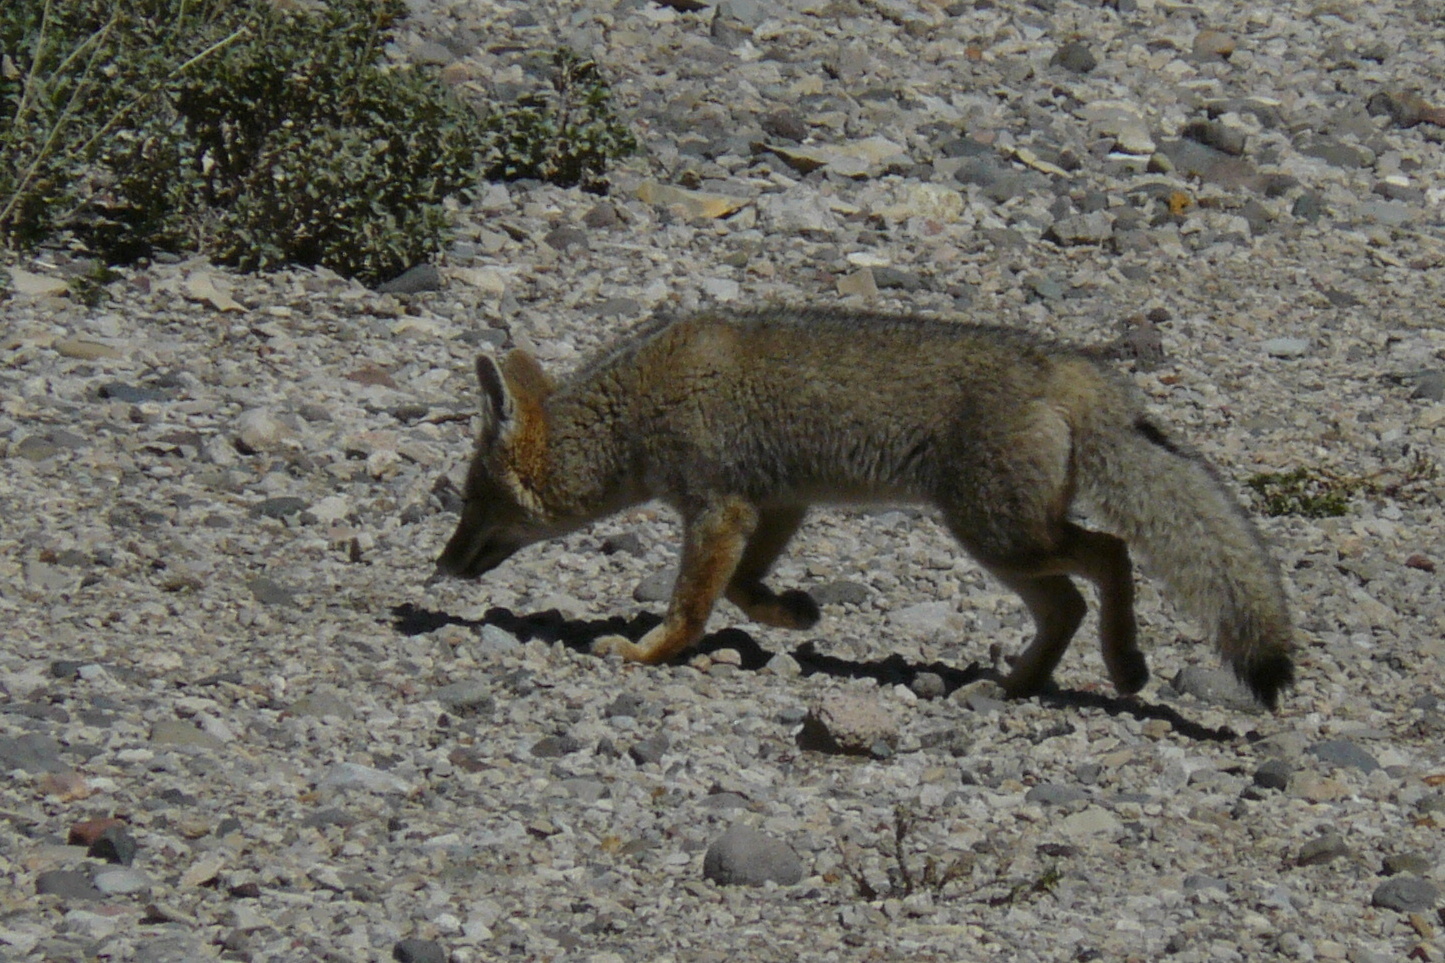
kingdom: Animalia
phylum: Chordata
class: Mammalia
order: Carnivora
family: Canidae
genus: Lycalopex
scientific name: Lycalopex gymnocercus
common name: Pampas fox
